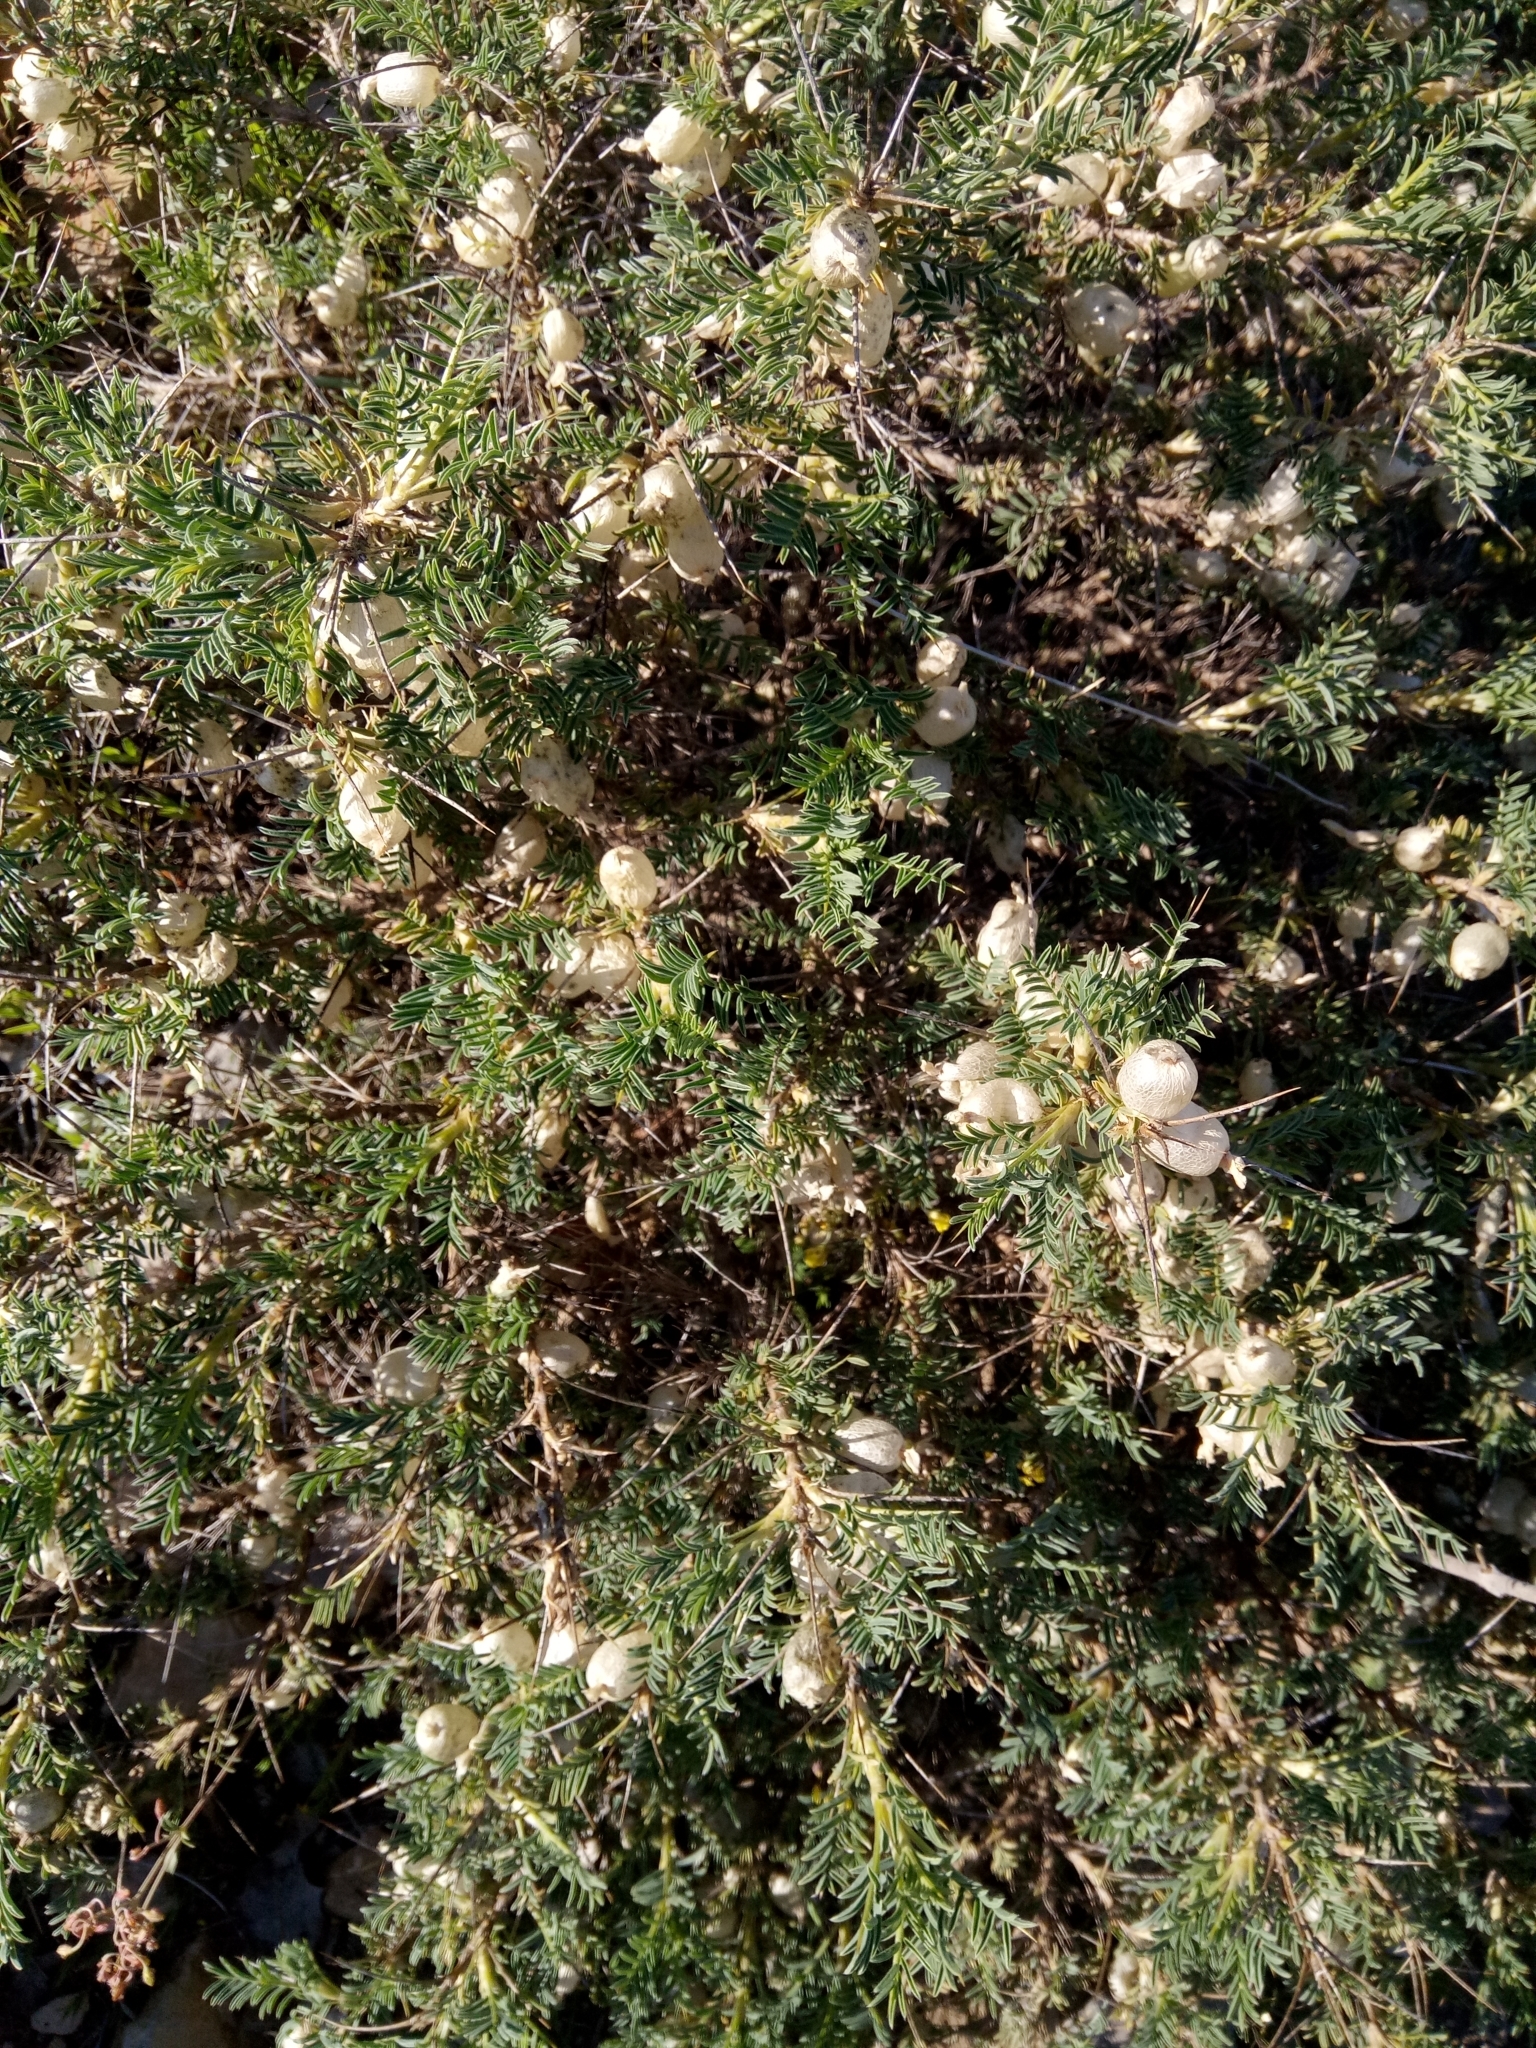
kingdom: Plantae
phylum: Tracheophyta
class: Magnoliopsida
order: Fabales
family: Fabaceae
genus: Astragalus
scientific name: Astragalus armatus
